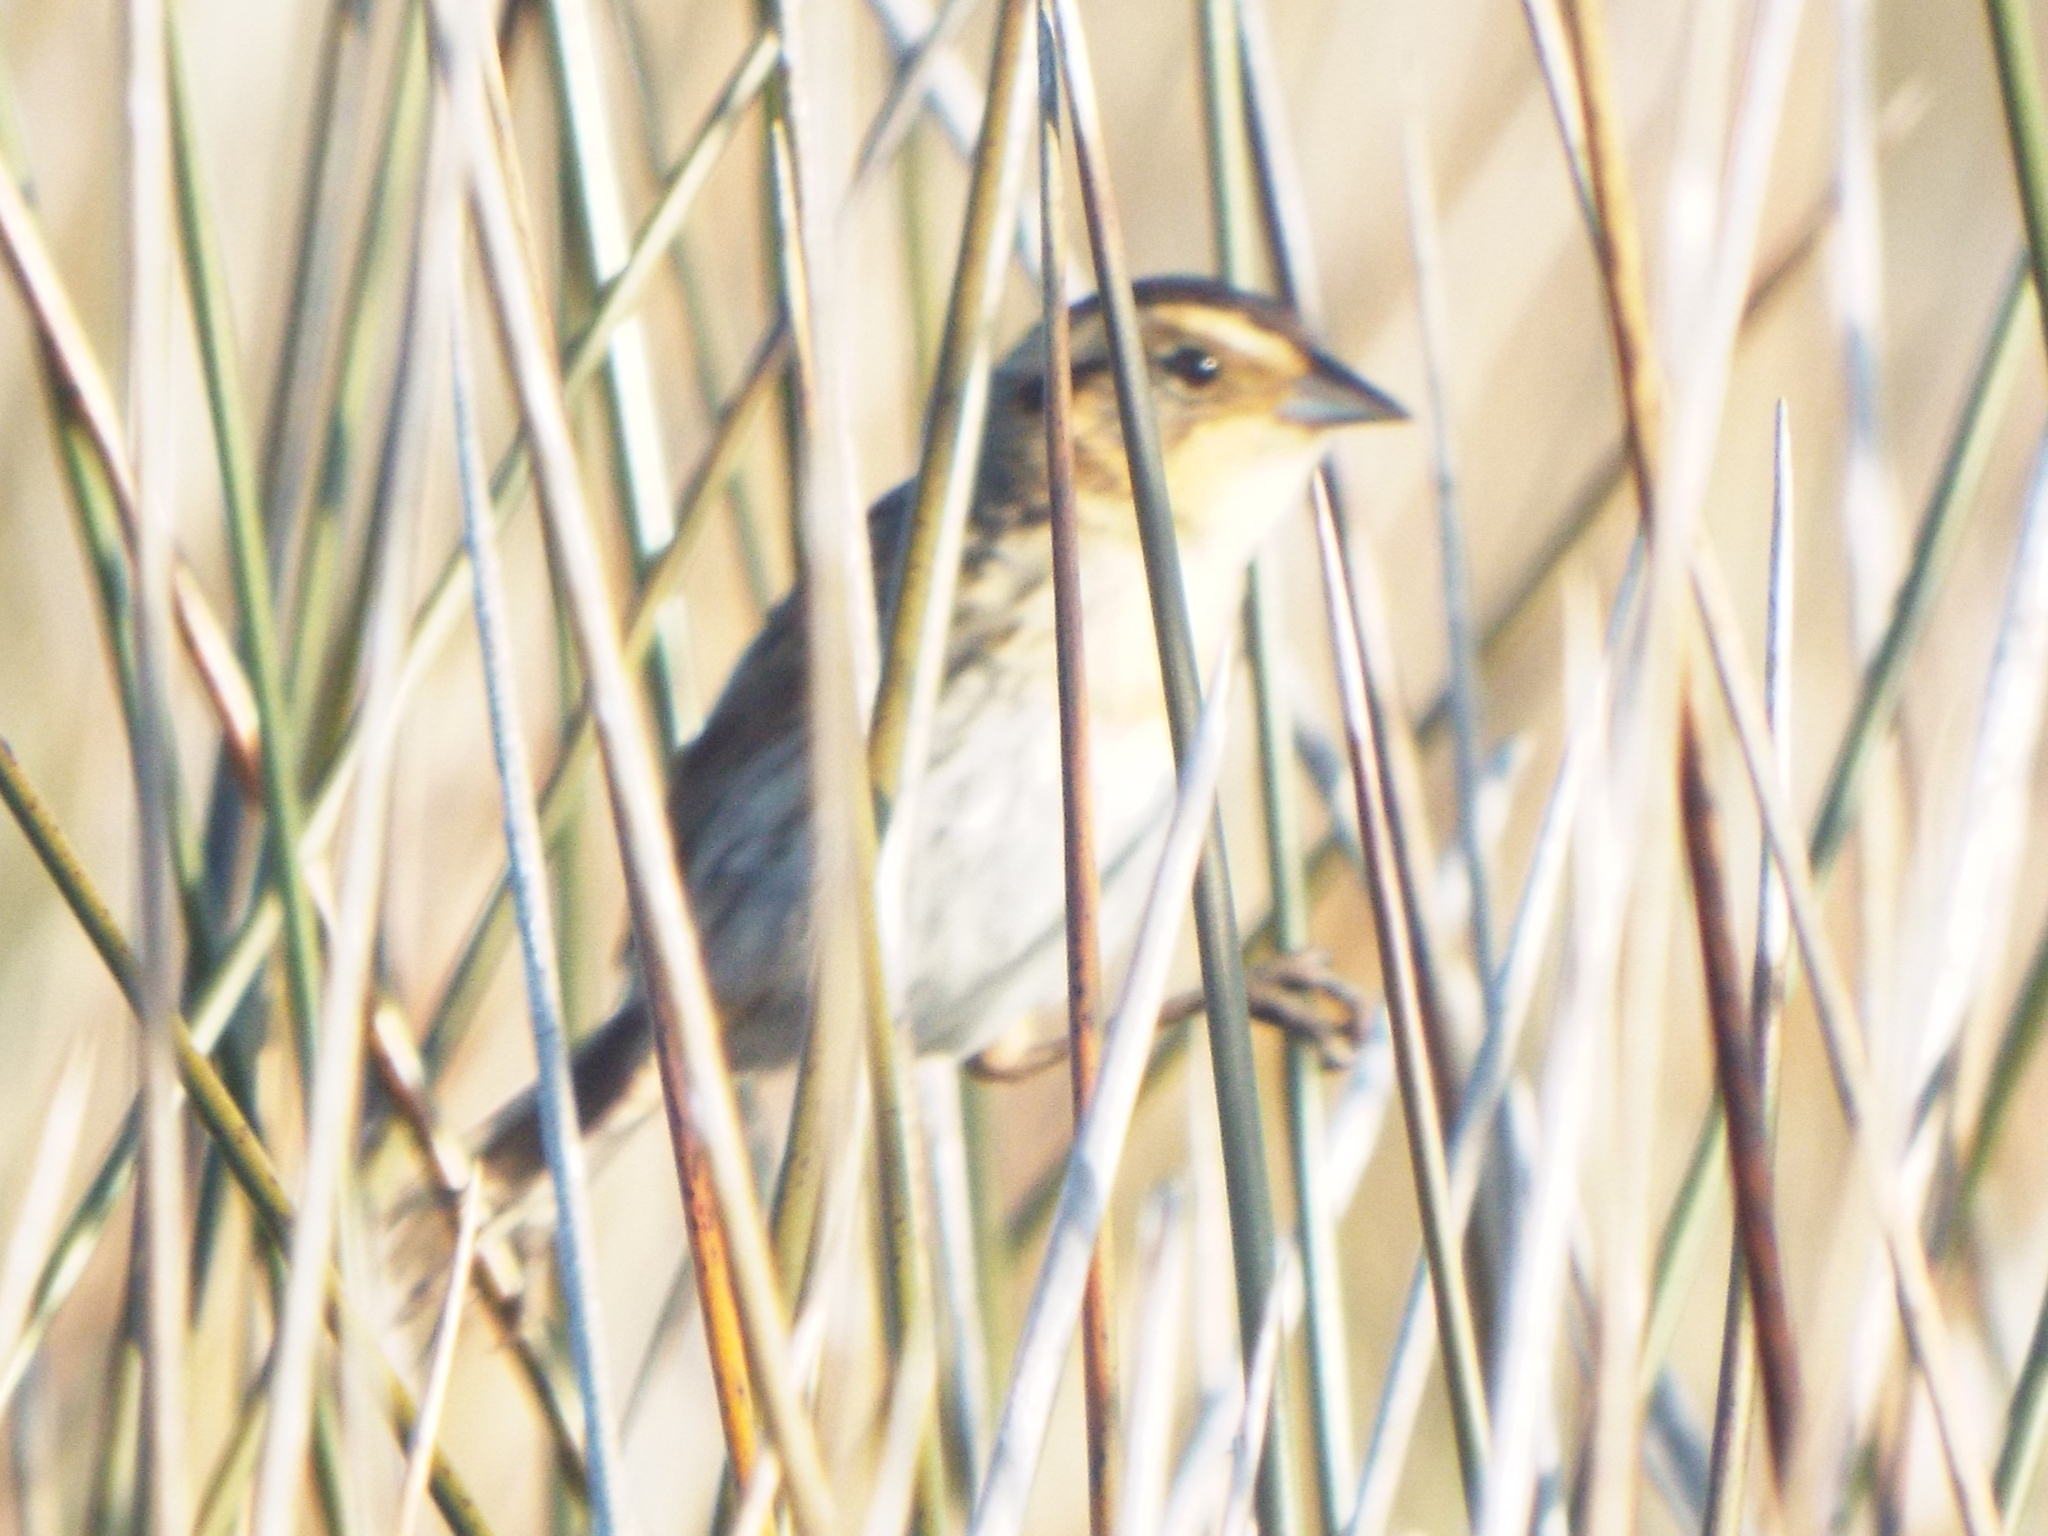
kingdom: Animalia
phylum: Chordata
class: Aves
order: Passeriformes
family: Passerellidae
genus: Ammospiza
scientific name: Ammospiza nelsoni
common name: Nelson's sparrow
